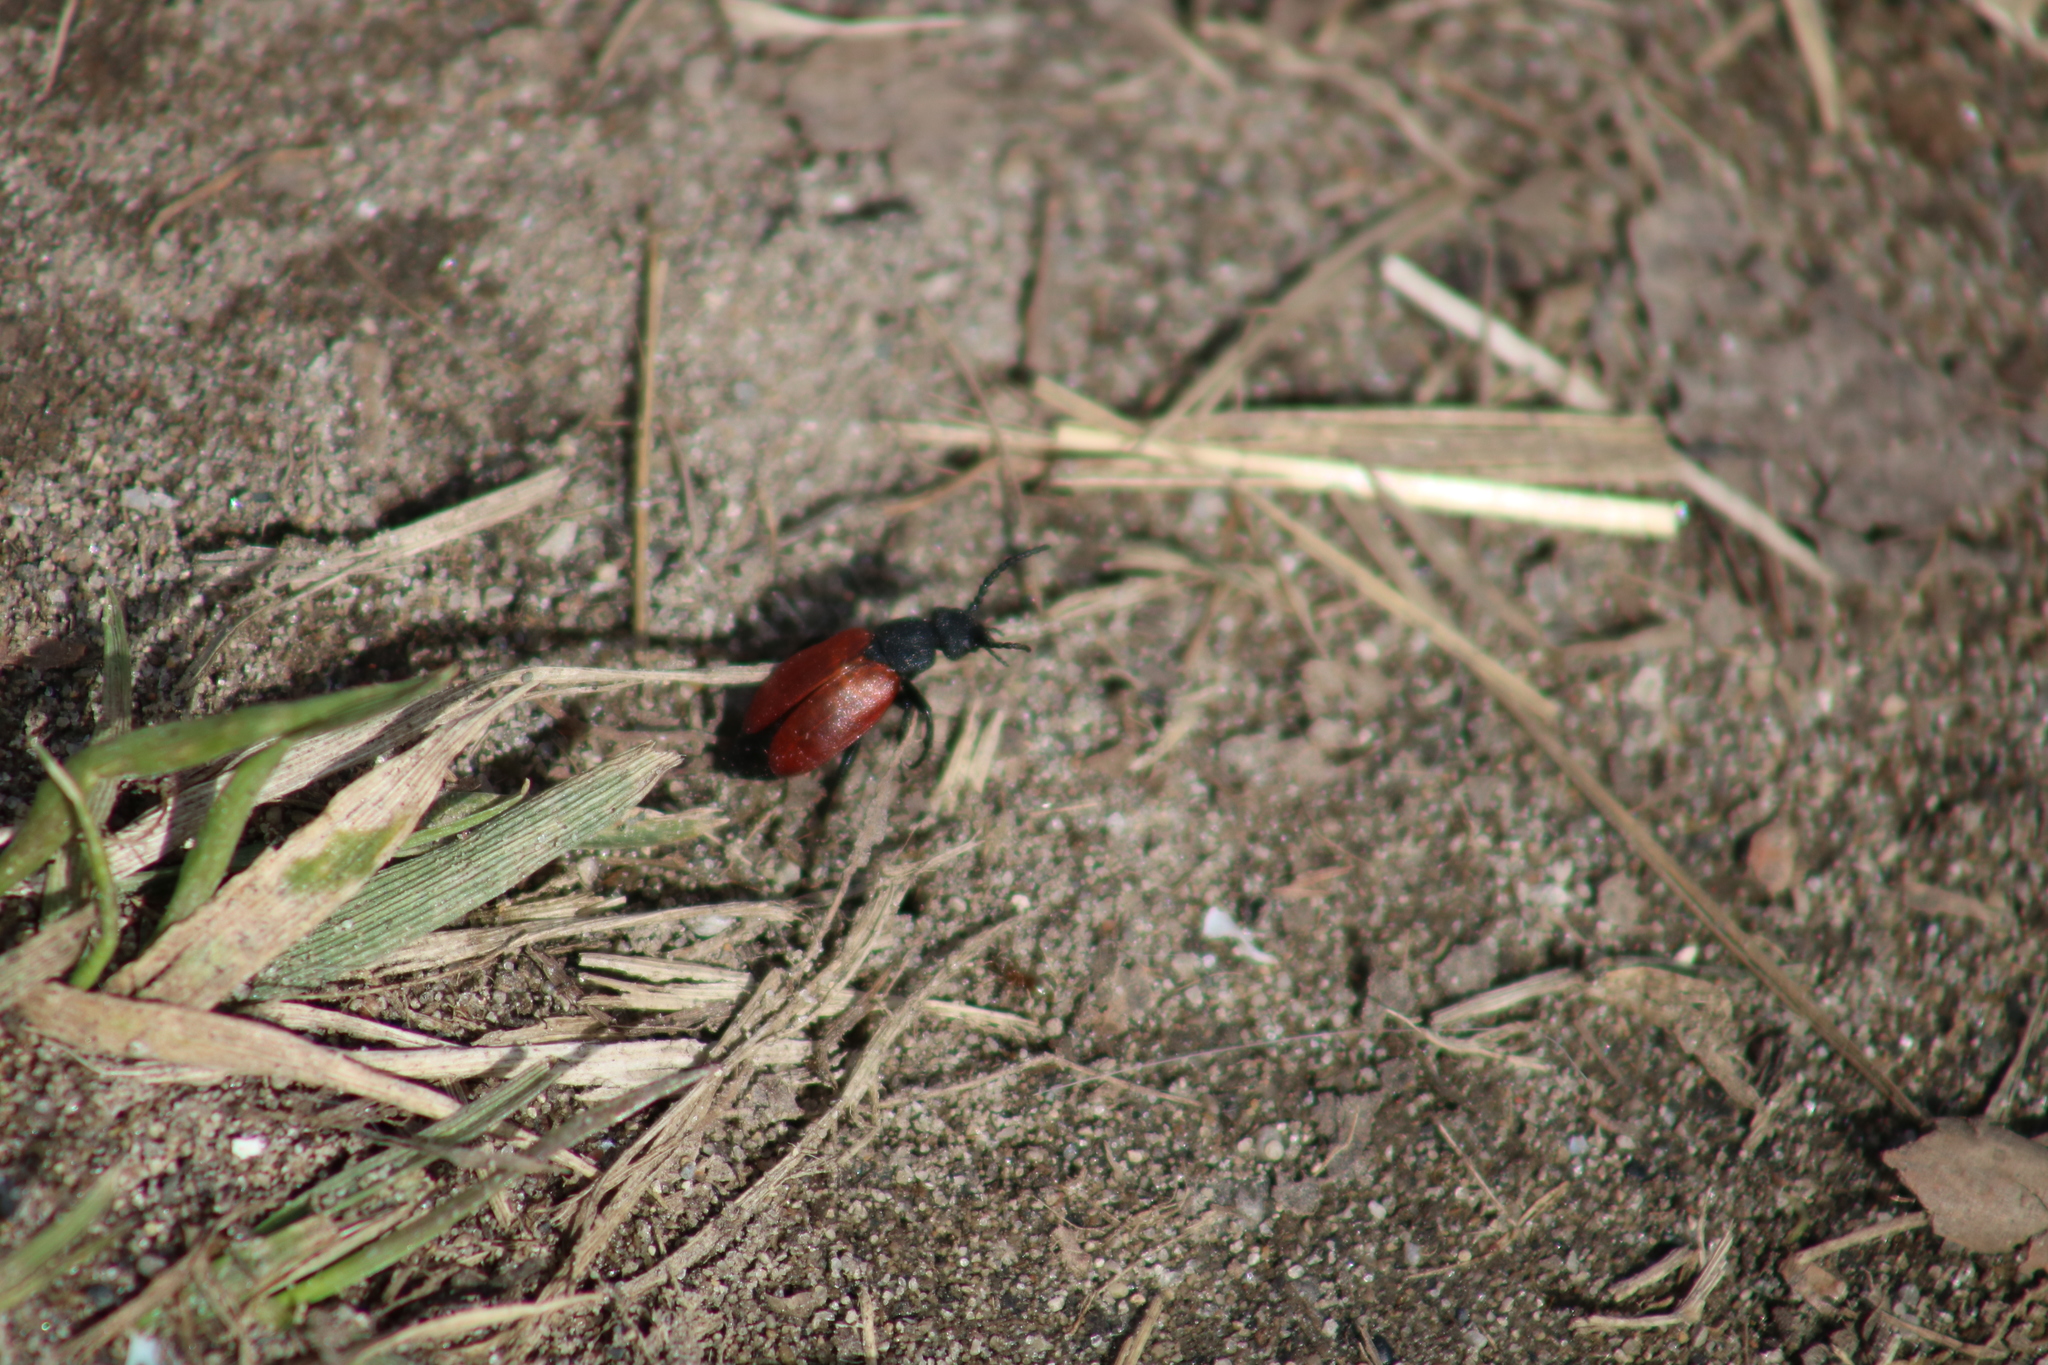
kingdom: Animalia
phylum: Arthropoda
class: Insecta
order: Coleoptera
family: Meloidae
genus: Tricrania
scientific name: Tricrania sanguinipennis
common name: Blood-winged blister beetle
